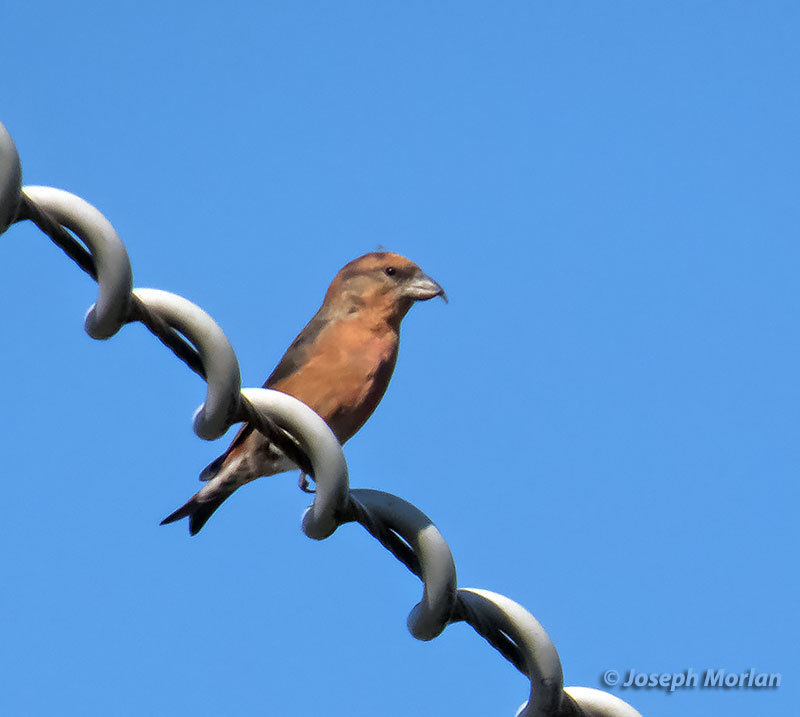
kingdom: Animalia
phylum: Chordata
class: Aves
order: Passeriformes
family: Fringillidae
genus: Loxia
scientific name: Loxia curvirostra
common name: Red crossbill
